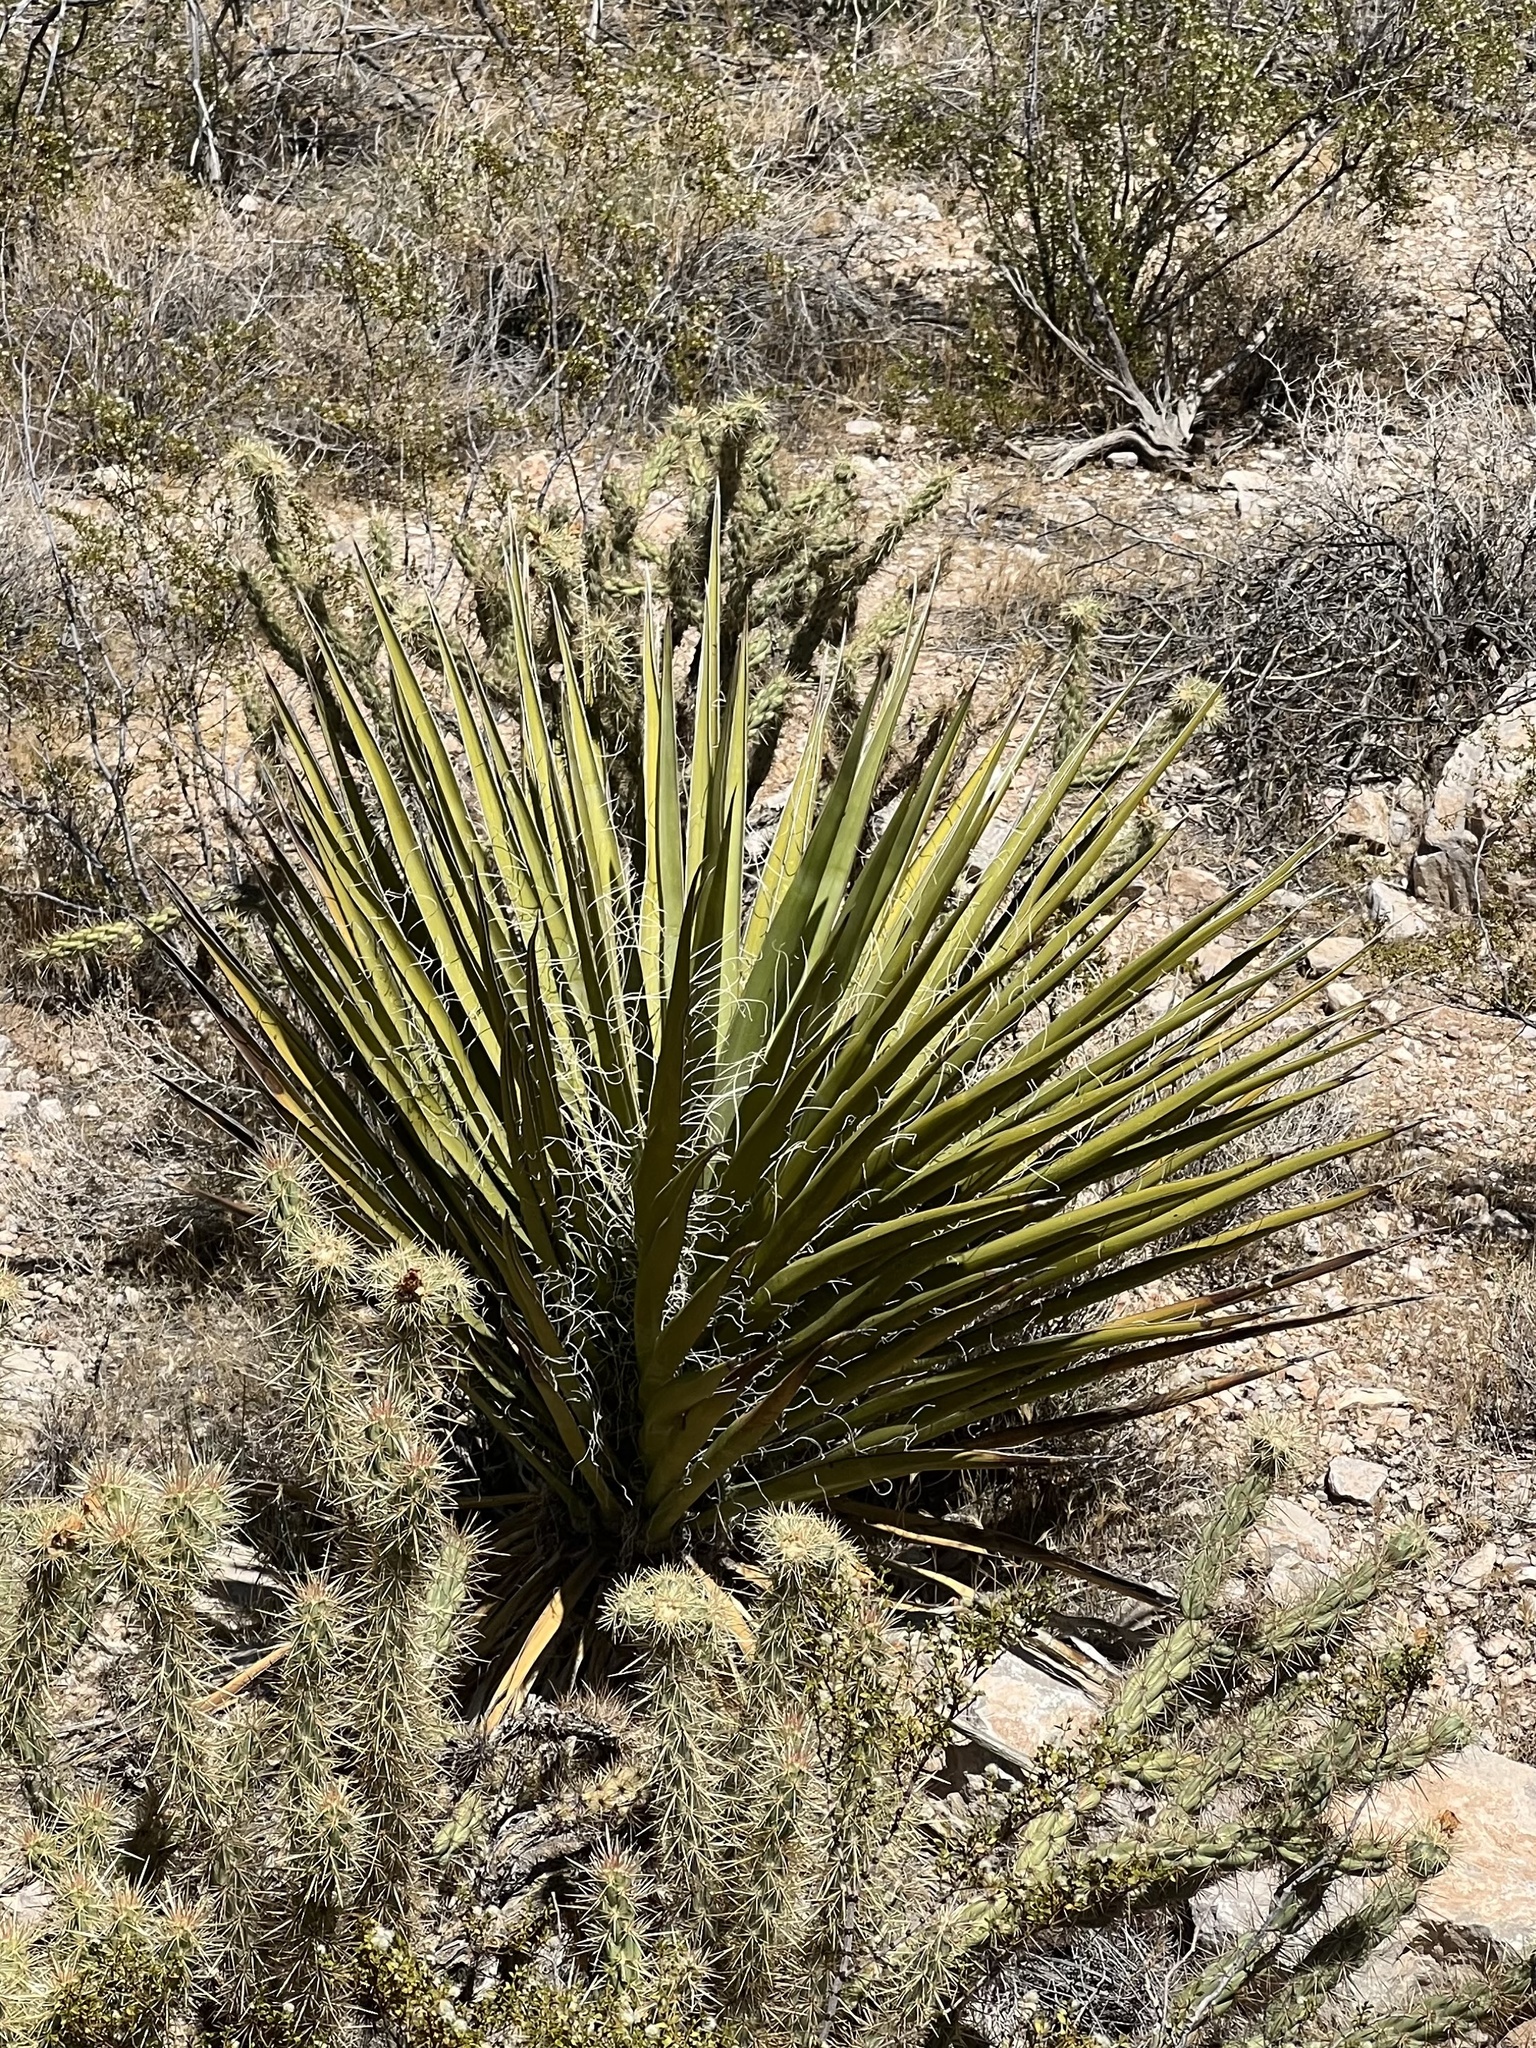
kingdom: Plantae
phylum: Tracheophyta
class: Liliopsida
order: Asparagales
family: Asparagaceae
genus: Yucca
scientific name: Yucca schidigera
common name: Mojave yucca
